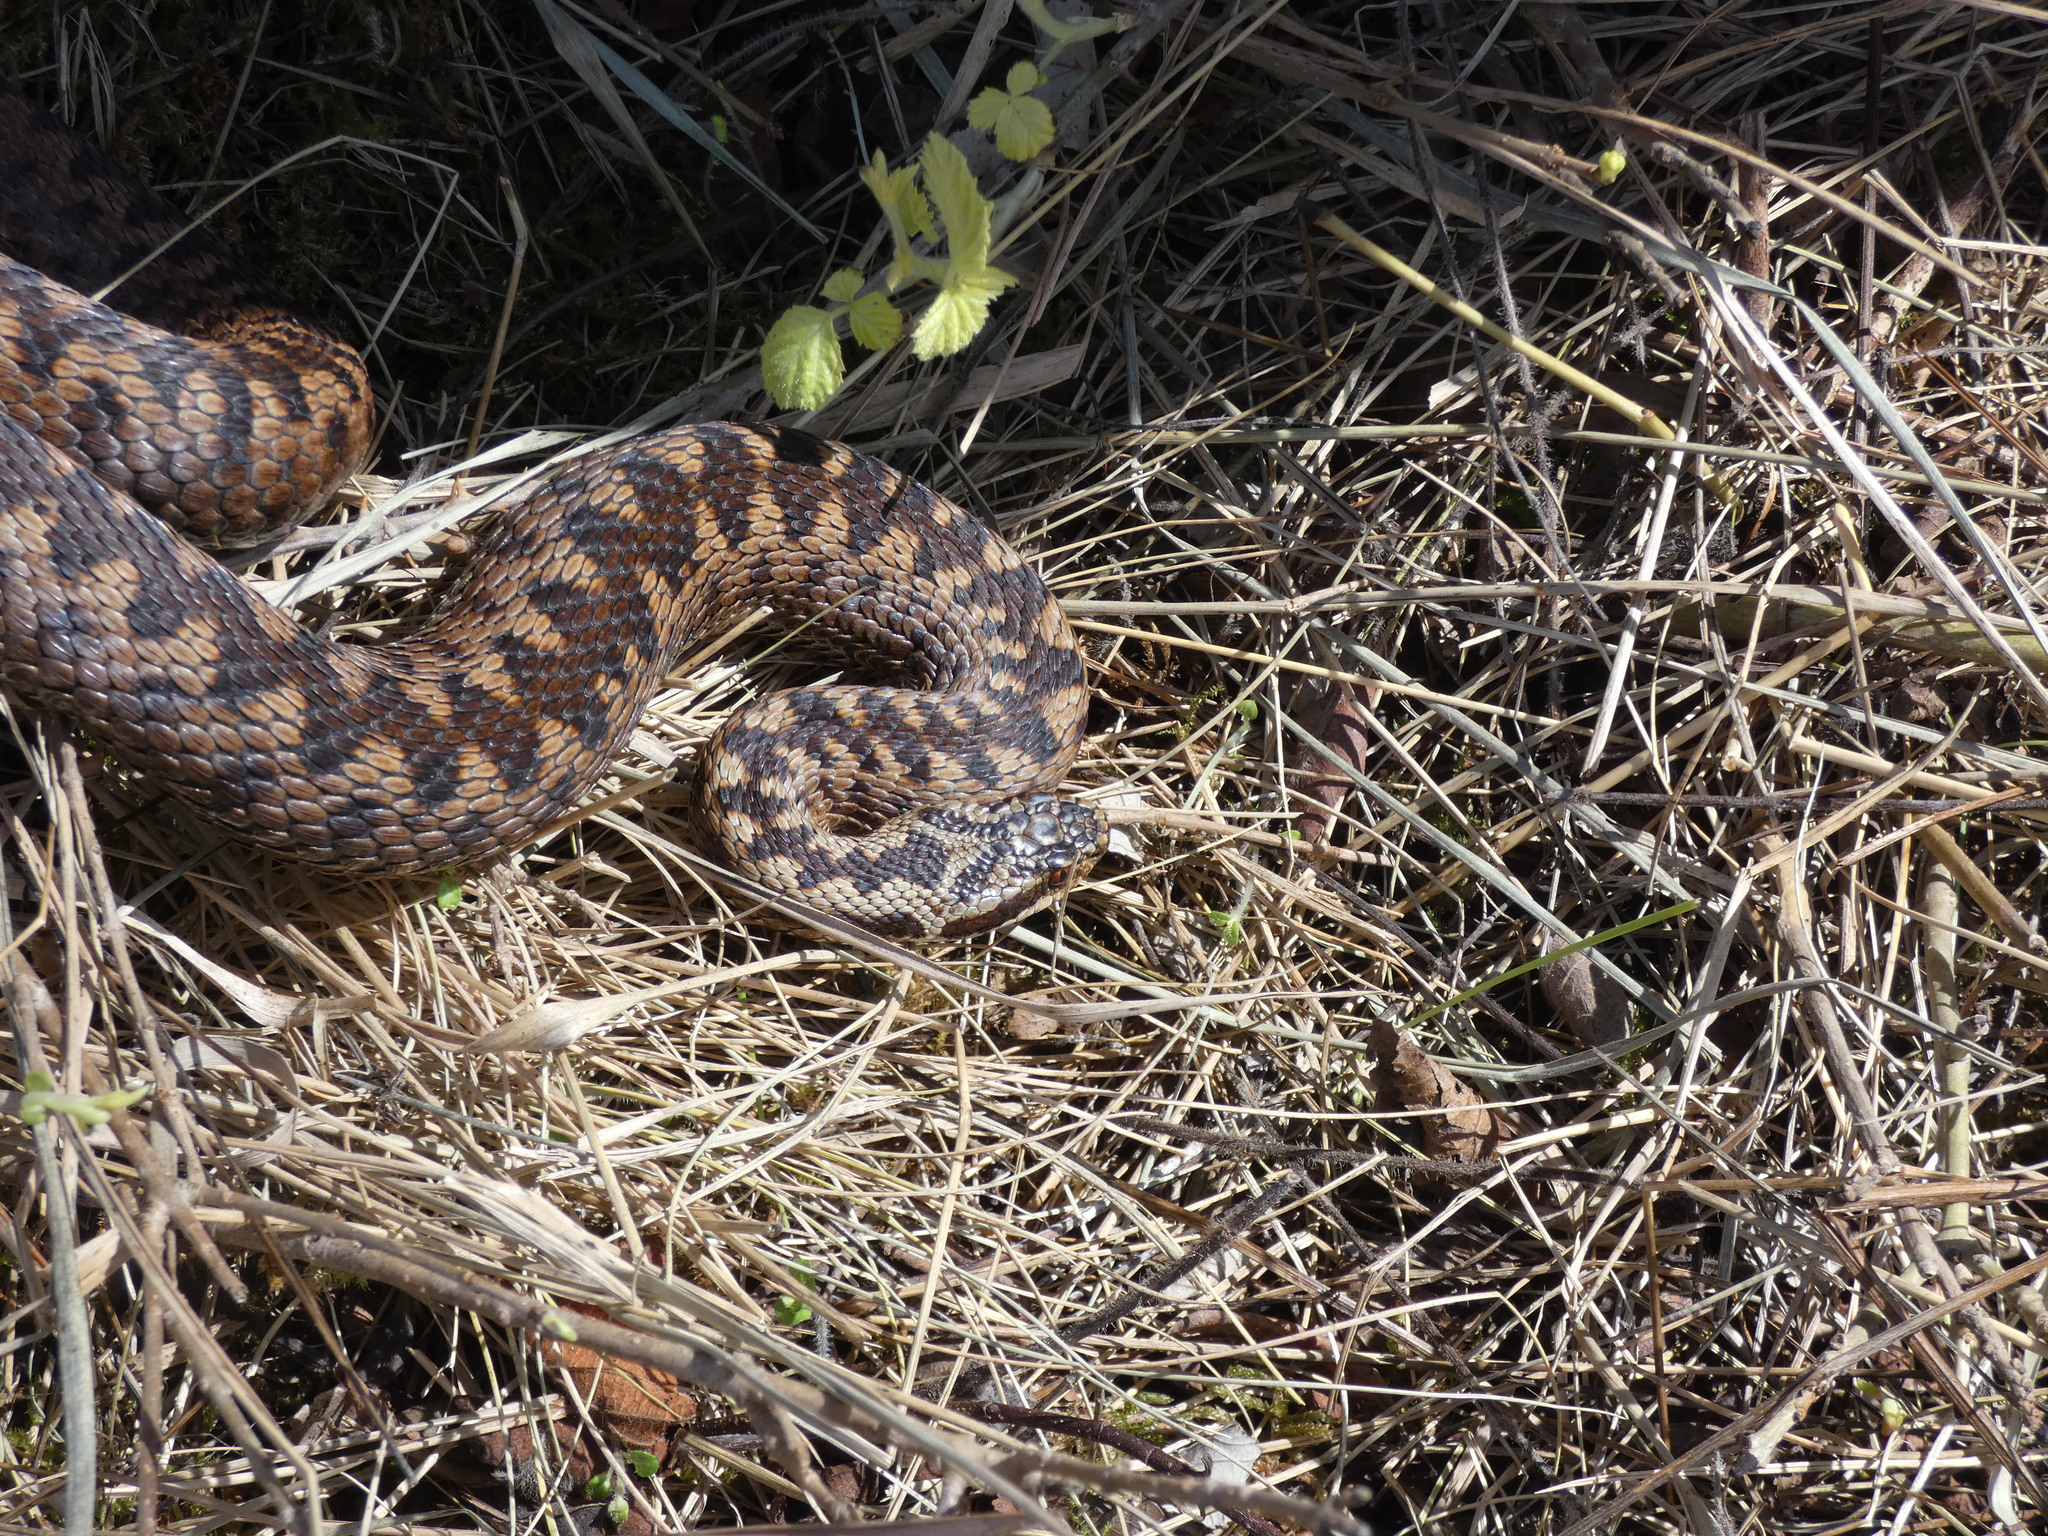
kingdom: Animalia
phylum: Chordata
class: Squamata
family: Viperidae
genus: Vipera
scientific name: Vipera berus
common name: Adder
